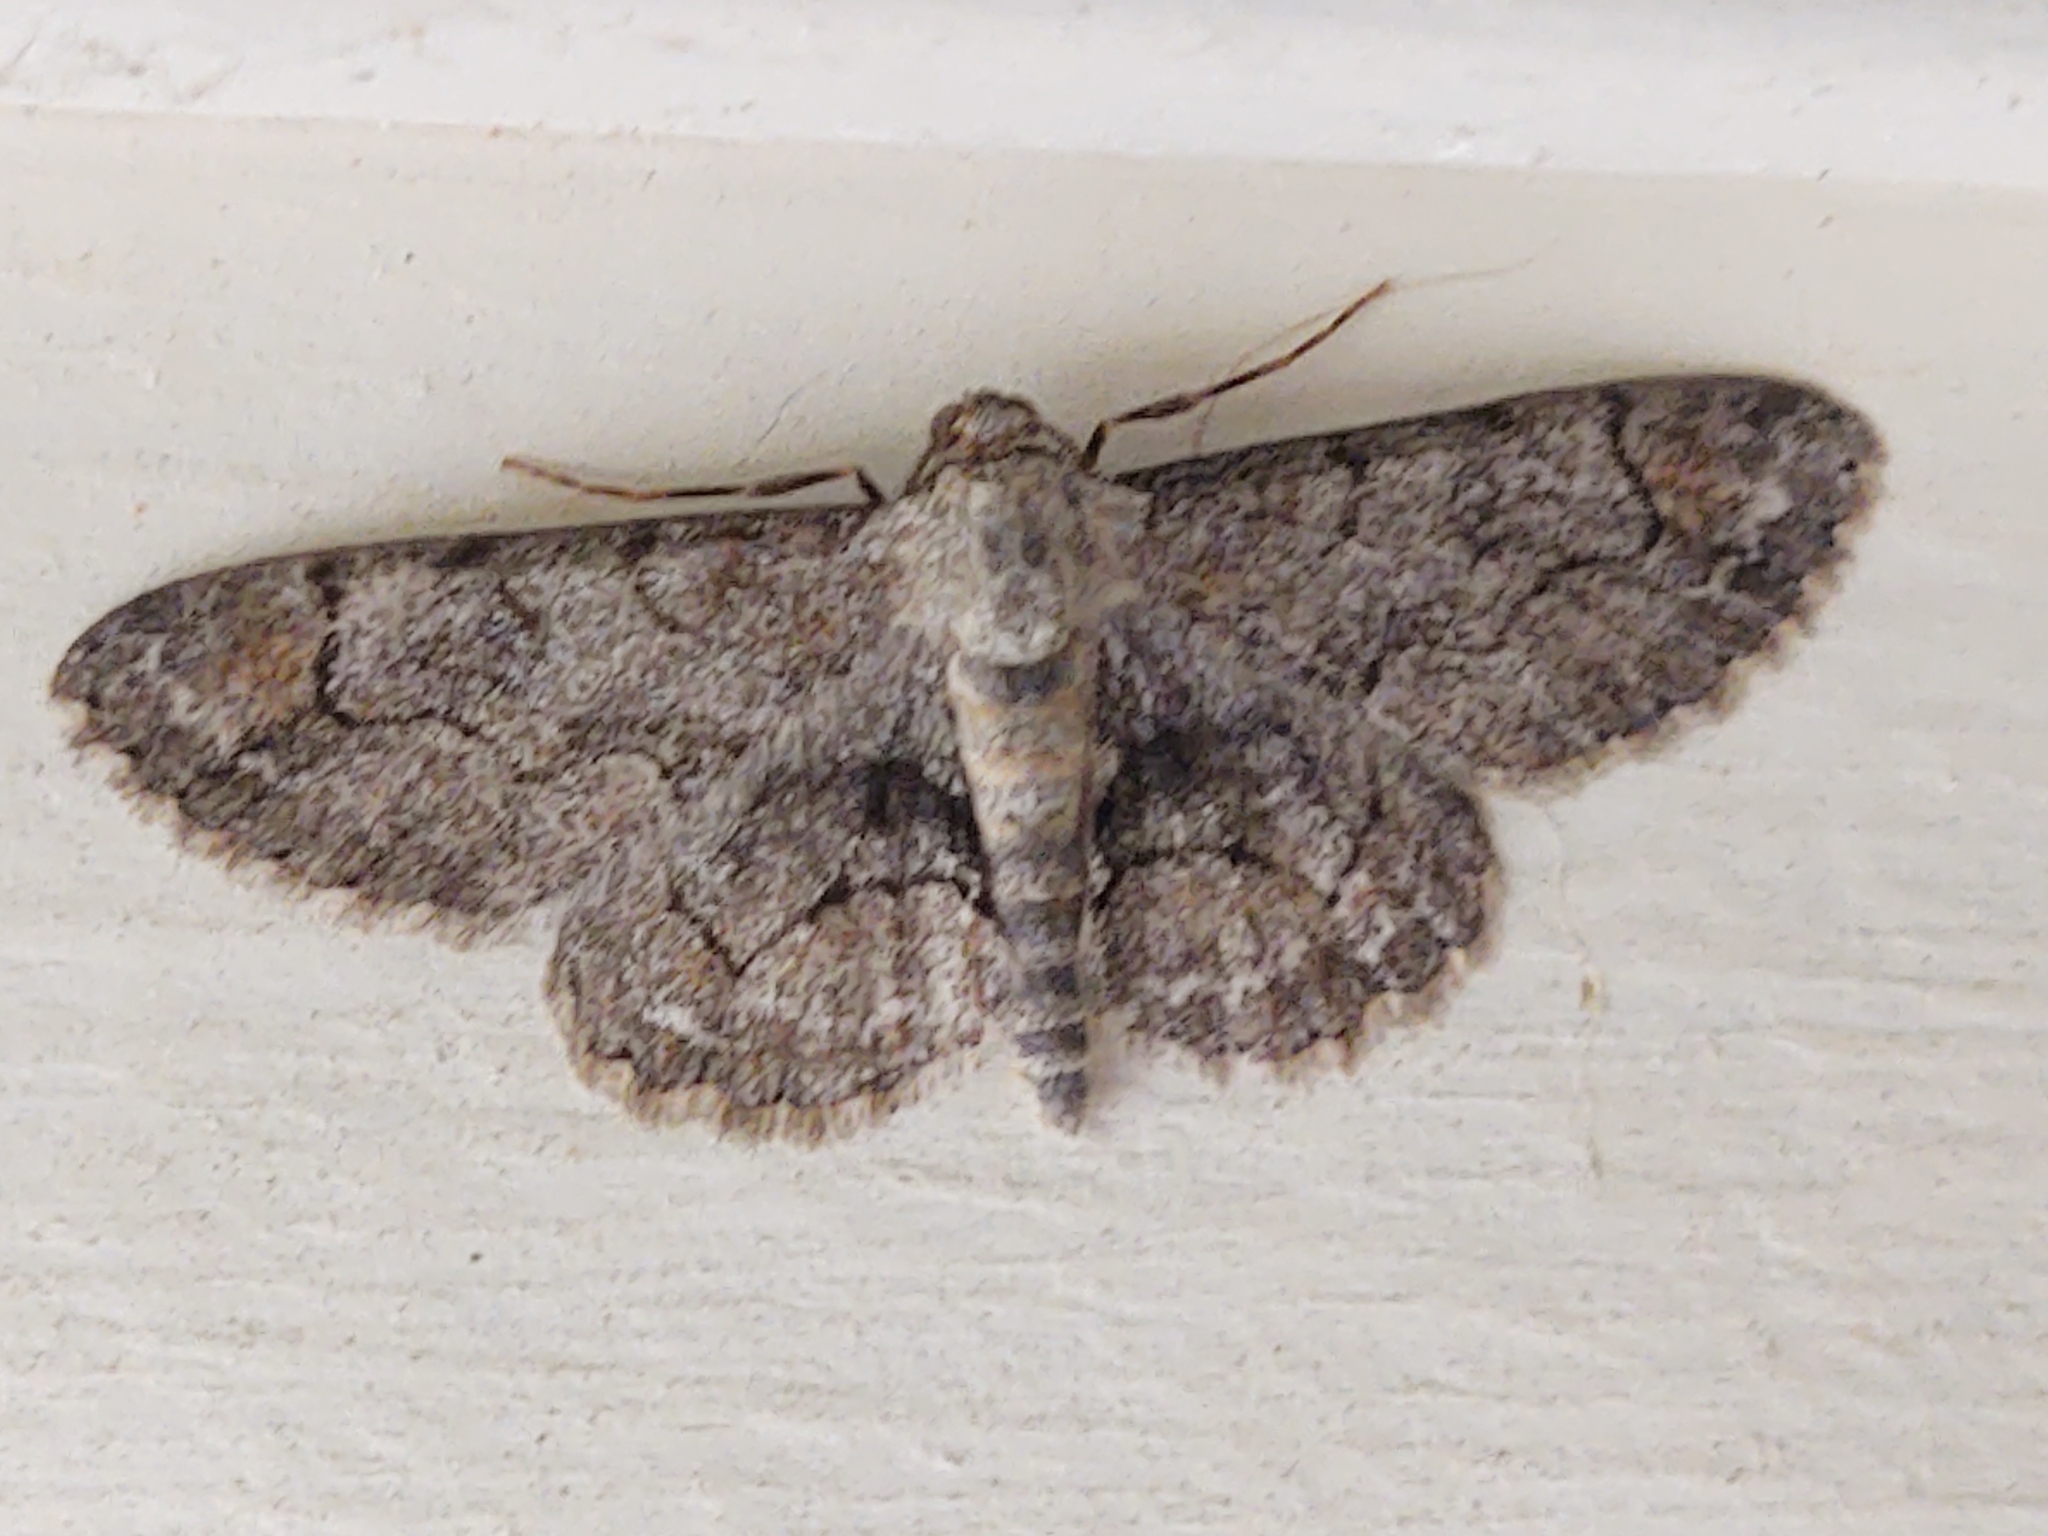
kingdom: Animalia
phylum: Arthropoda
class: Insecta
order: Lepidoptera
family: Geometridae
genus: Iridopsis
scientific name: Iridopsis ephyraria
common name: Pale-winged gray
